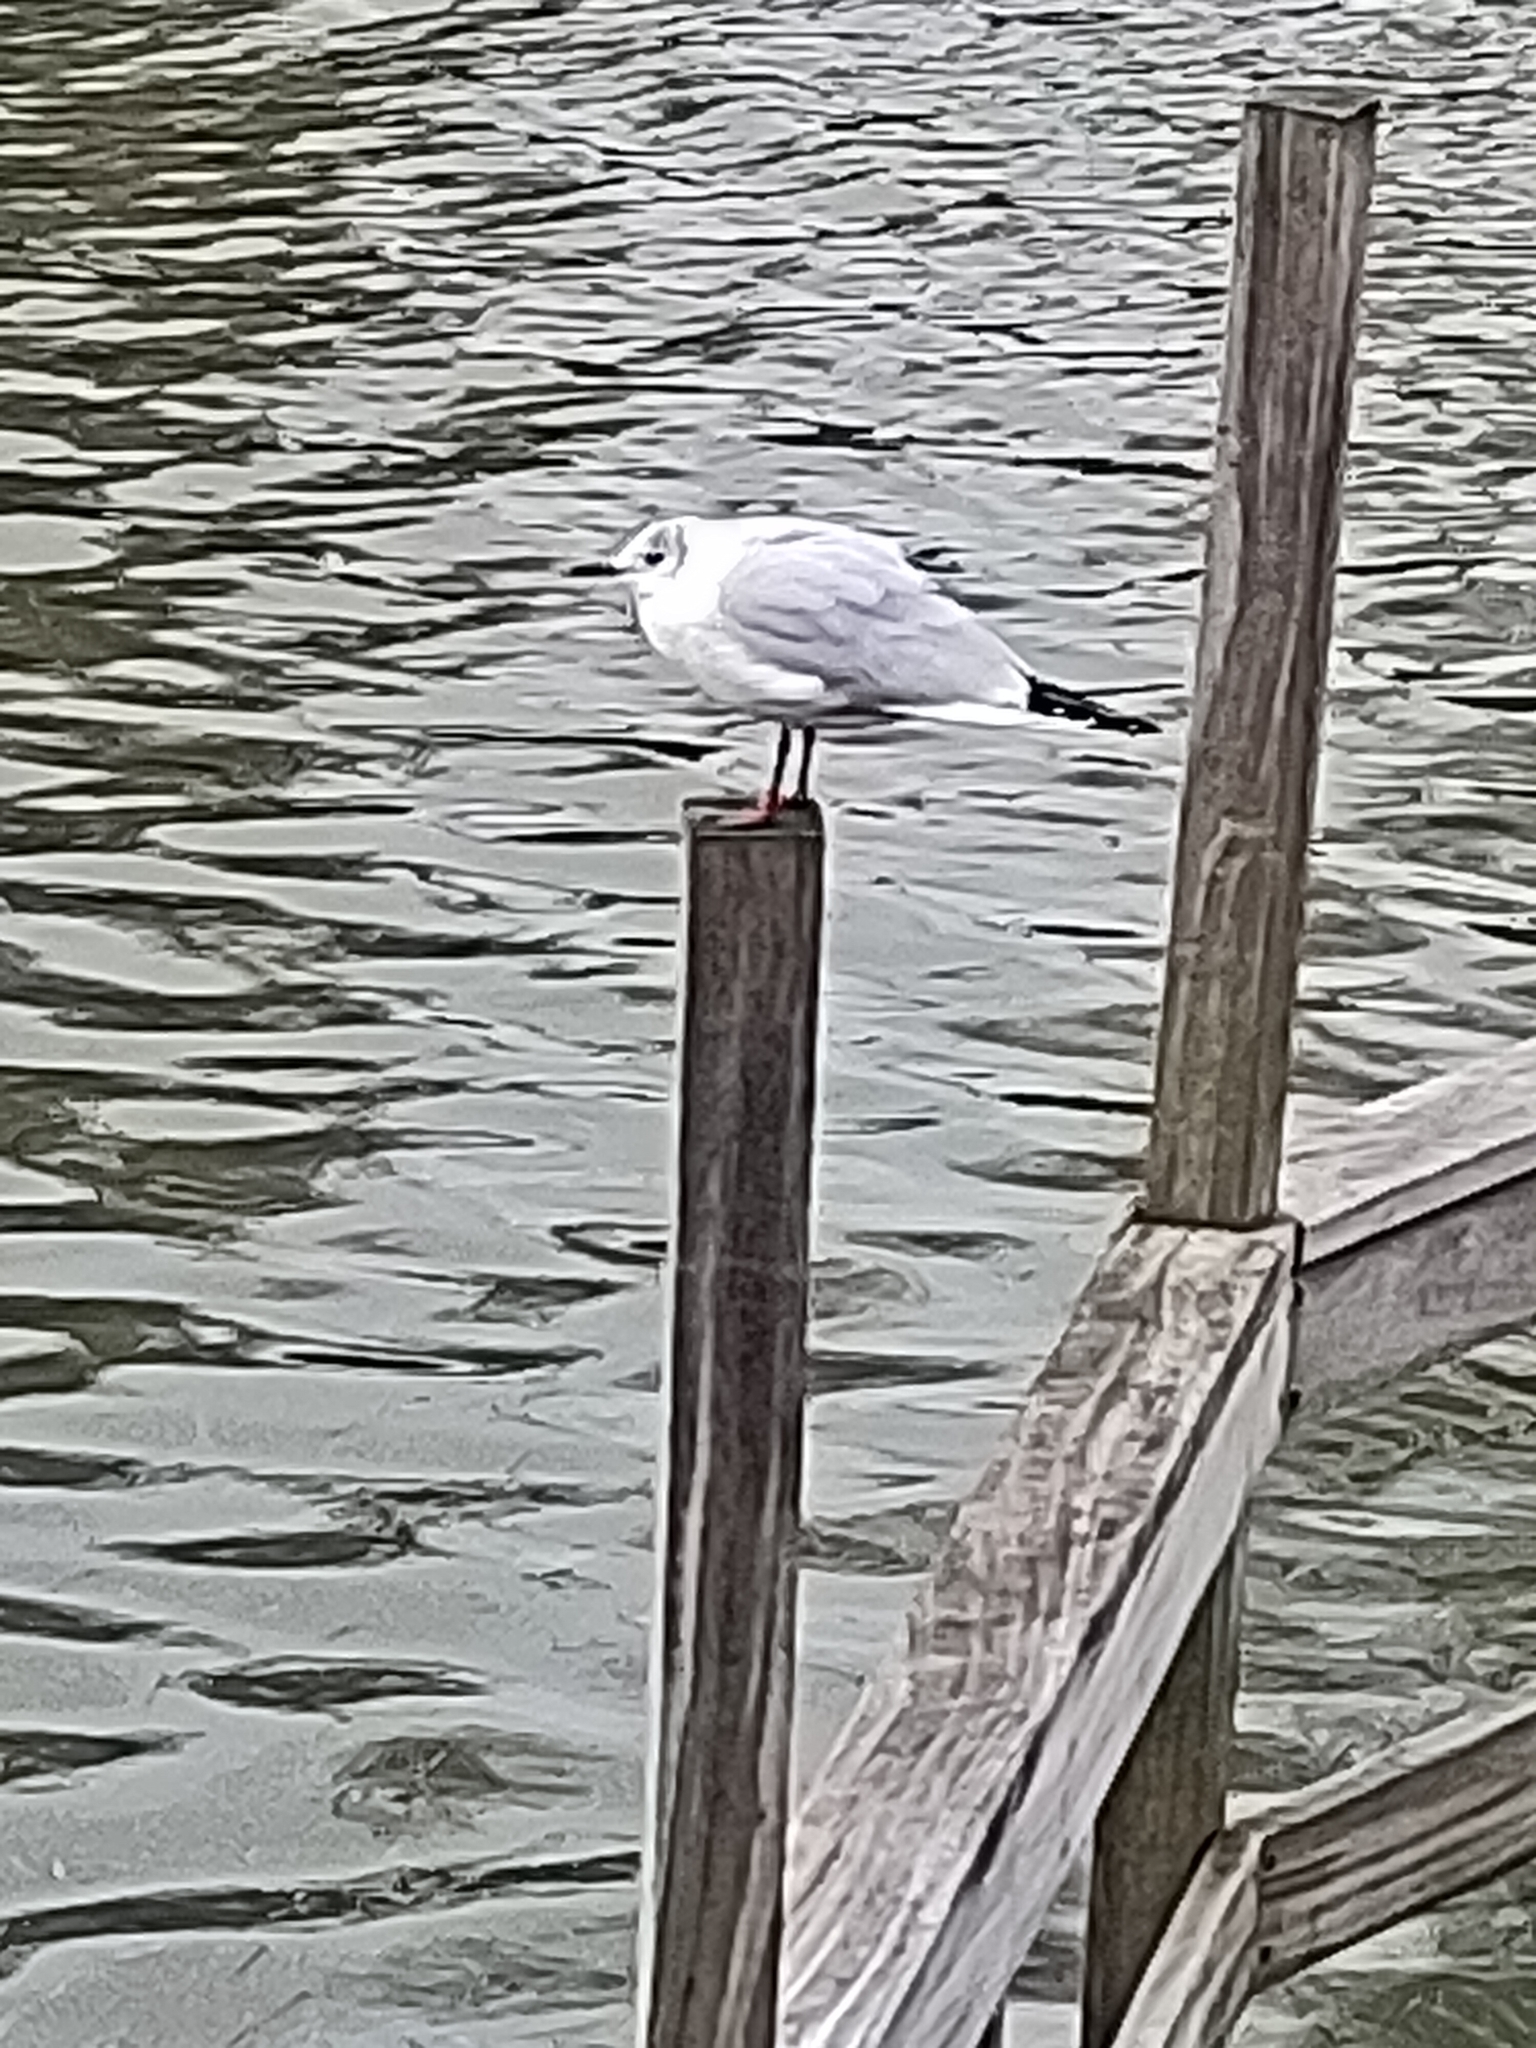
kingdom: Animalia
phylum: Chordata
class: Aves
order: Charadriiformes
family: Laridae
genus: Chroicocephalus
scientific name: Chroicocephalus ridibundus
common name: Black-headed gull
